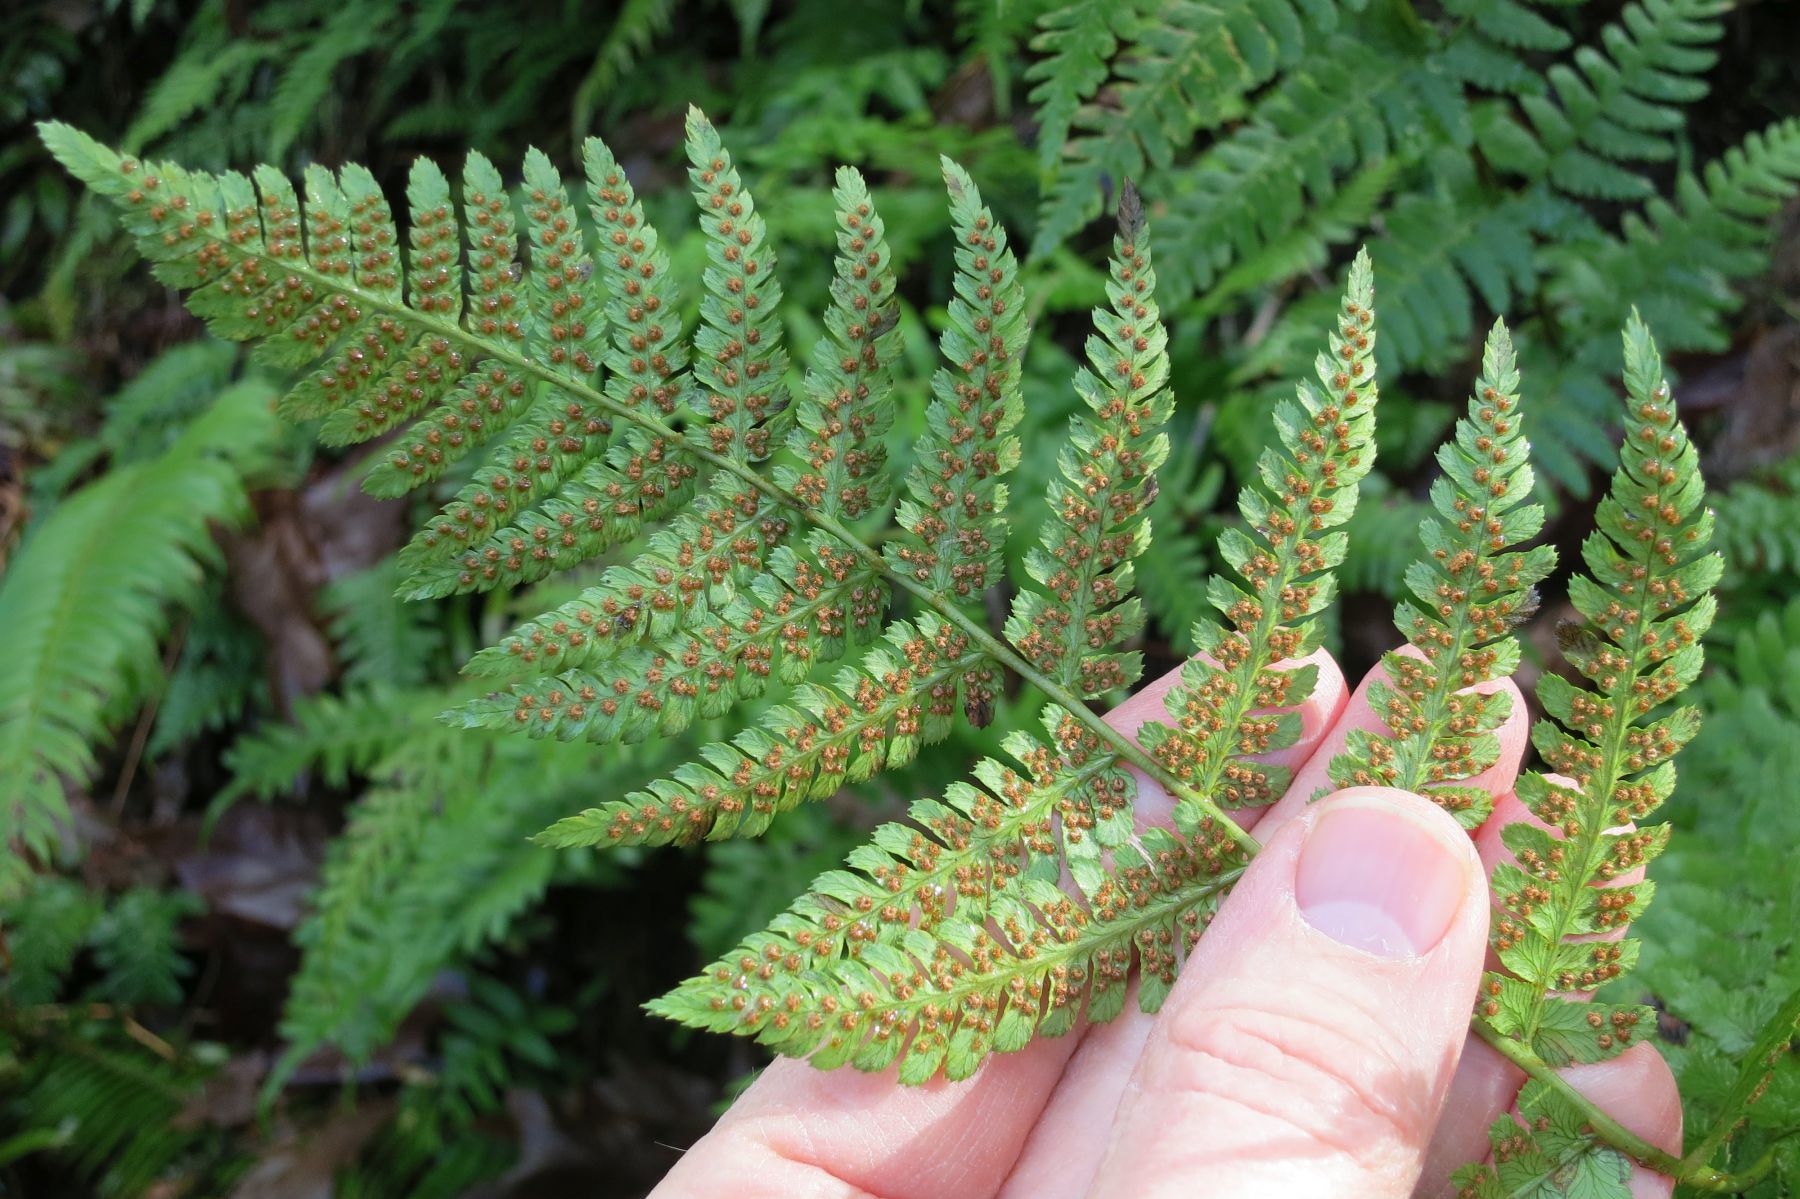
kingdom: Plantae
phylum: Tracheophyta
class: Polypodiopsida
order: Polypodiales
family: Dryopteridaceae
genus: Dryopteris
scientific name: Dryopteris arguta
